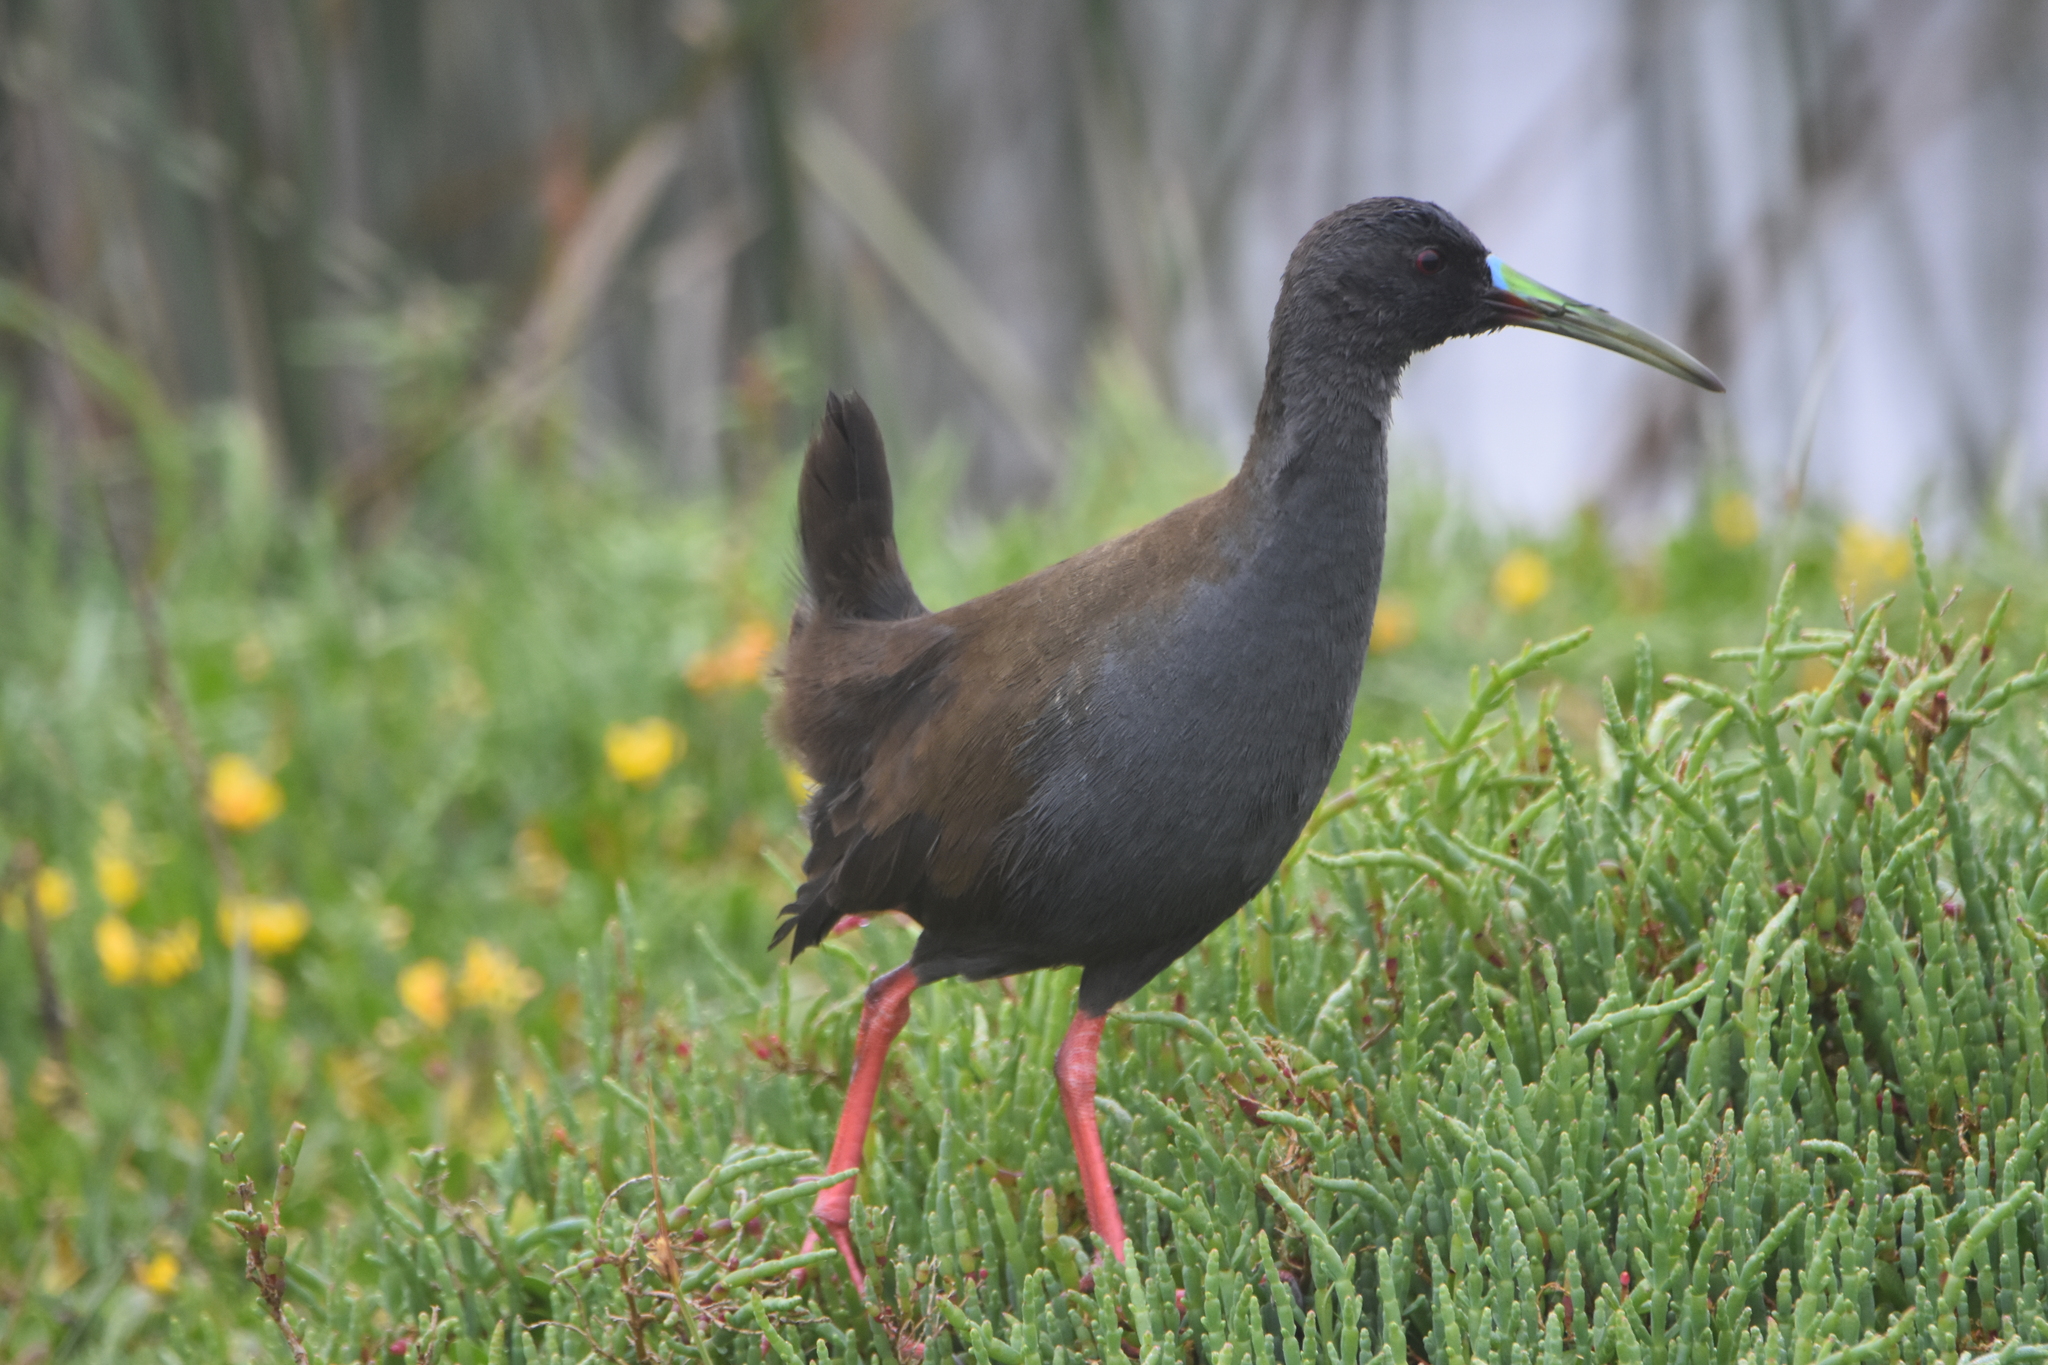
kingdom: Animalia
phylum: Chordata
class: Aves
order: Gruiformes
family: Rallidae
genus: Pardirallus
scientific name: Pardirallus sanguinolentus
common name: Plumbeous rail
